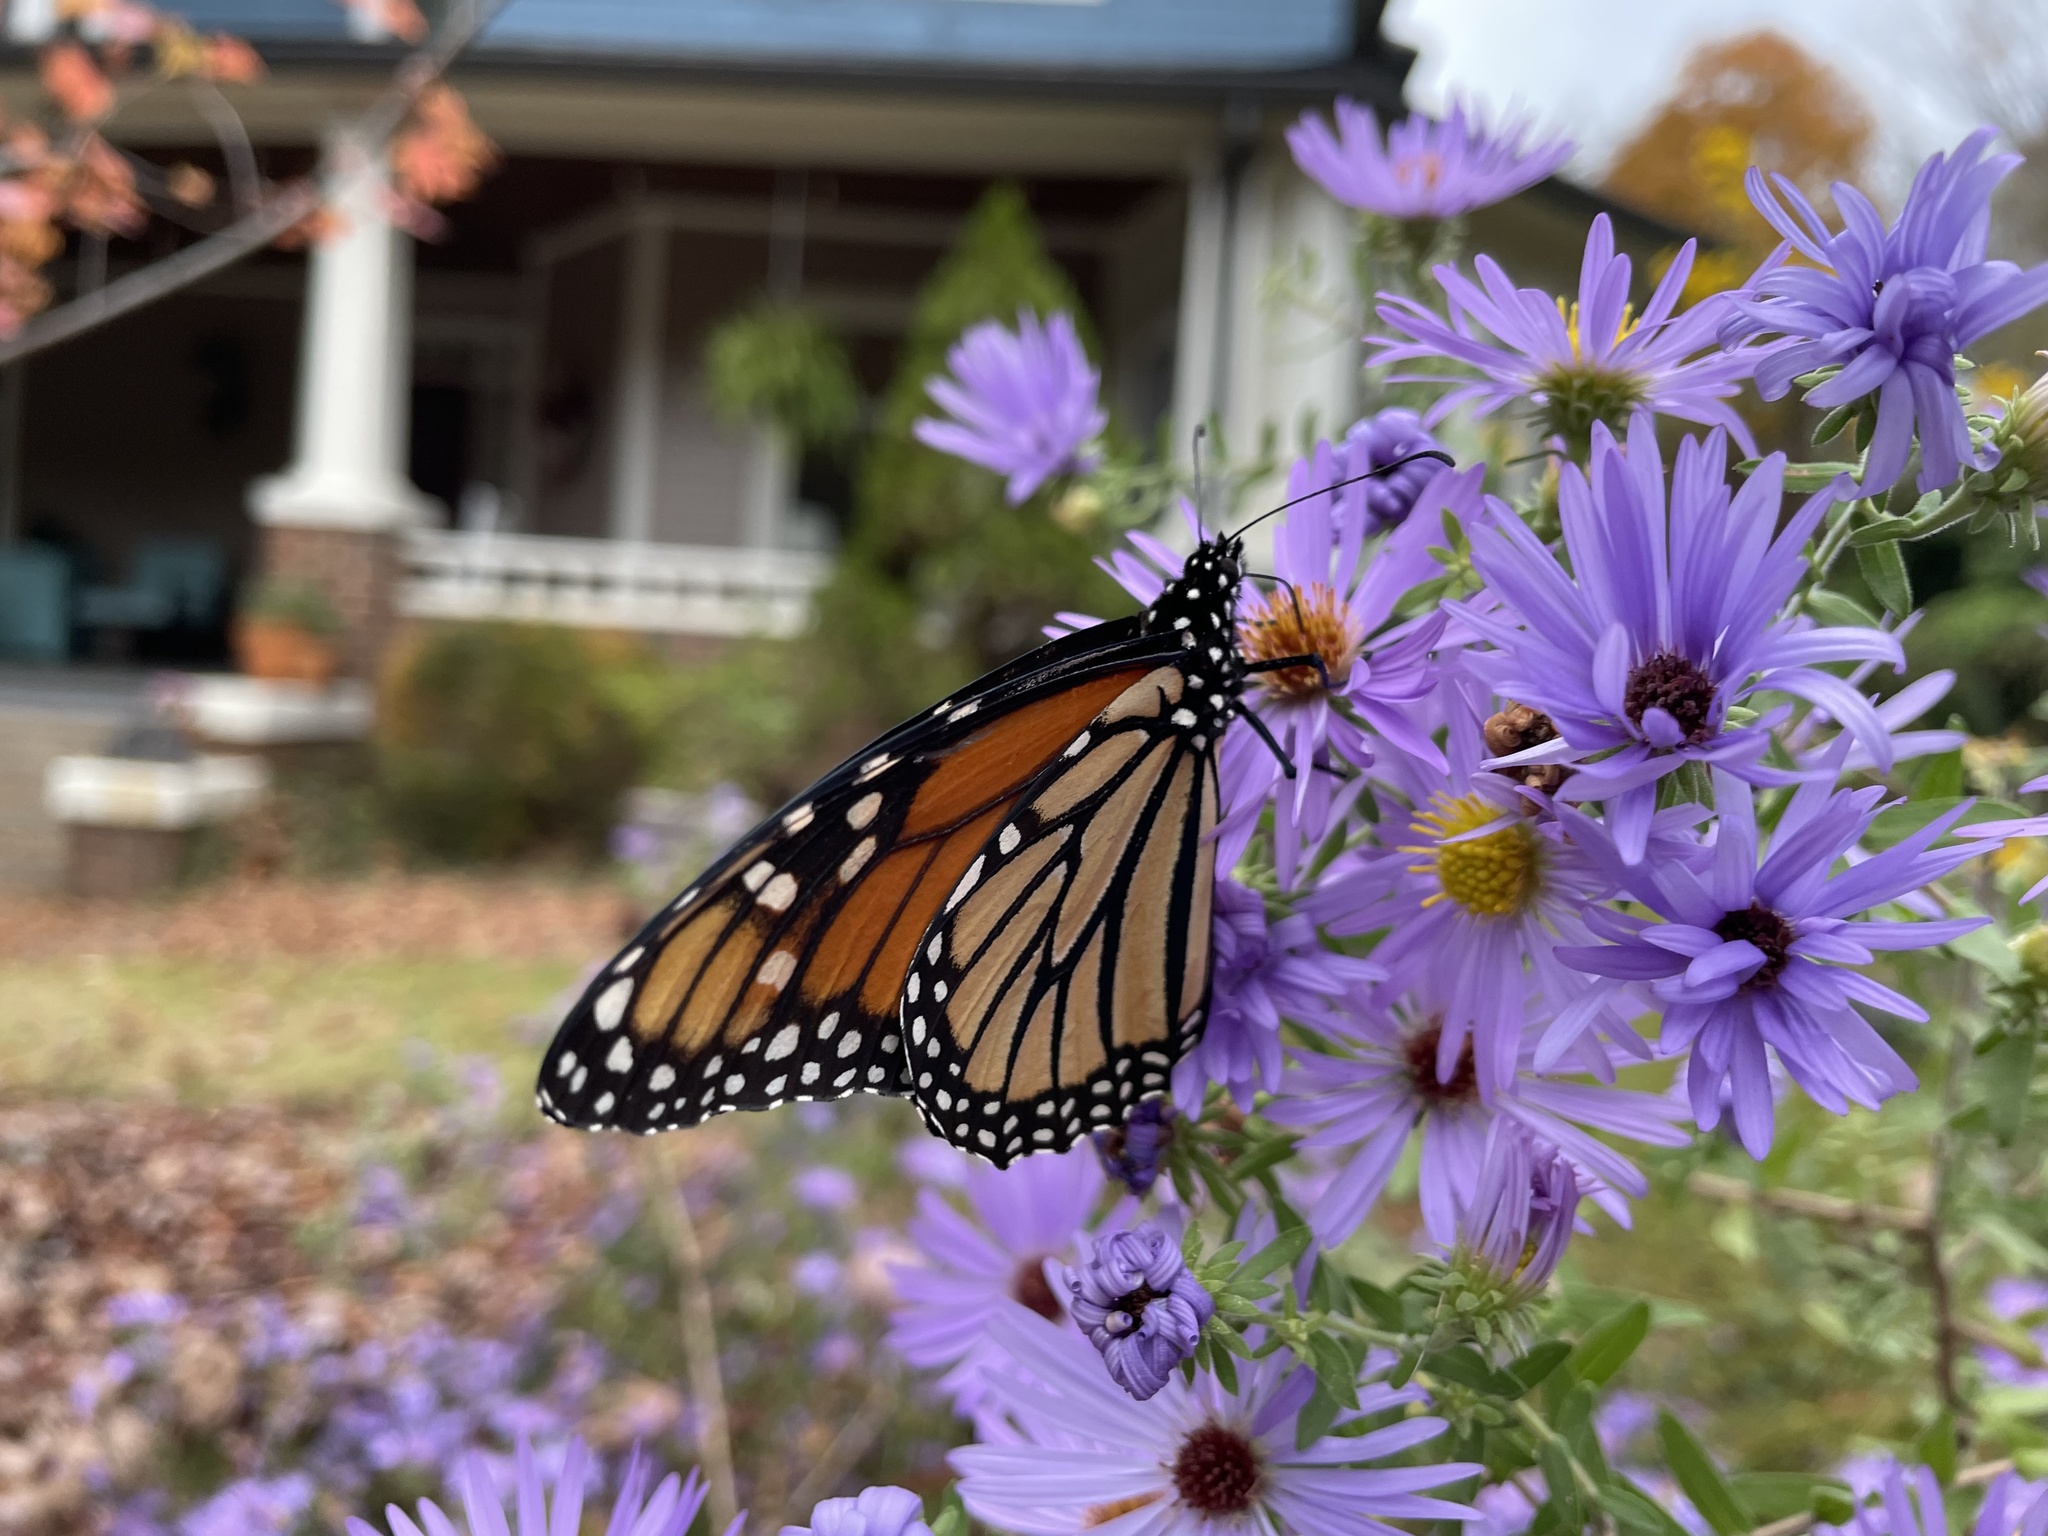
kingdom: Animalia
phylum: Arthropoda
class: Insecta
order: Lepidoptera
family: Nymphalidae
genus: Danaus
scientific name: Danaus plexippus
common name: Monarch
